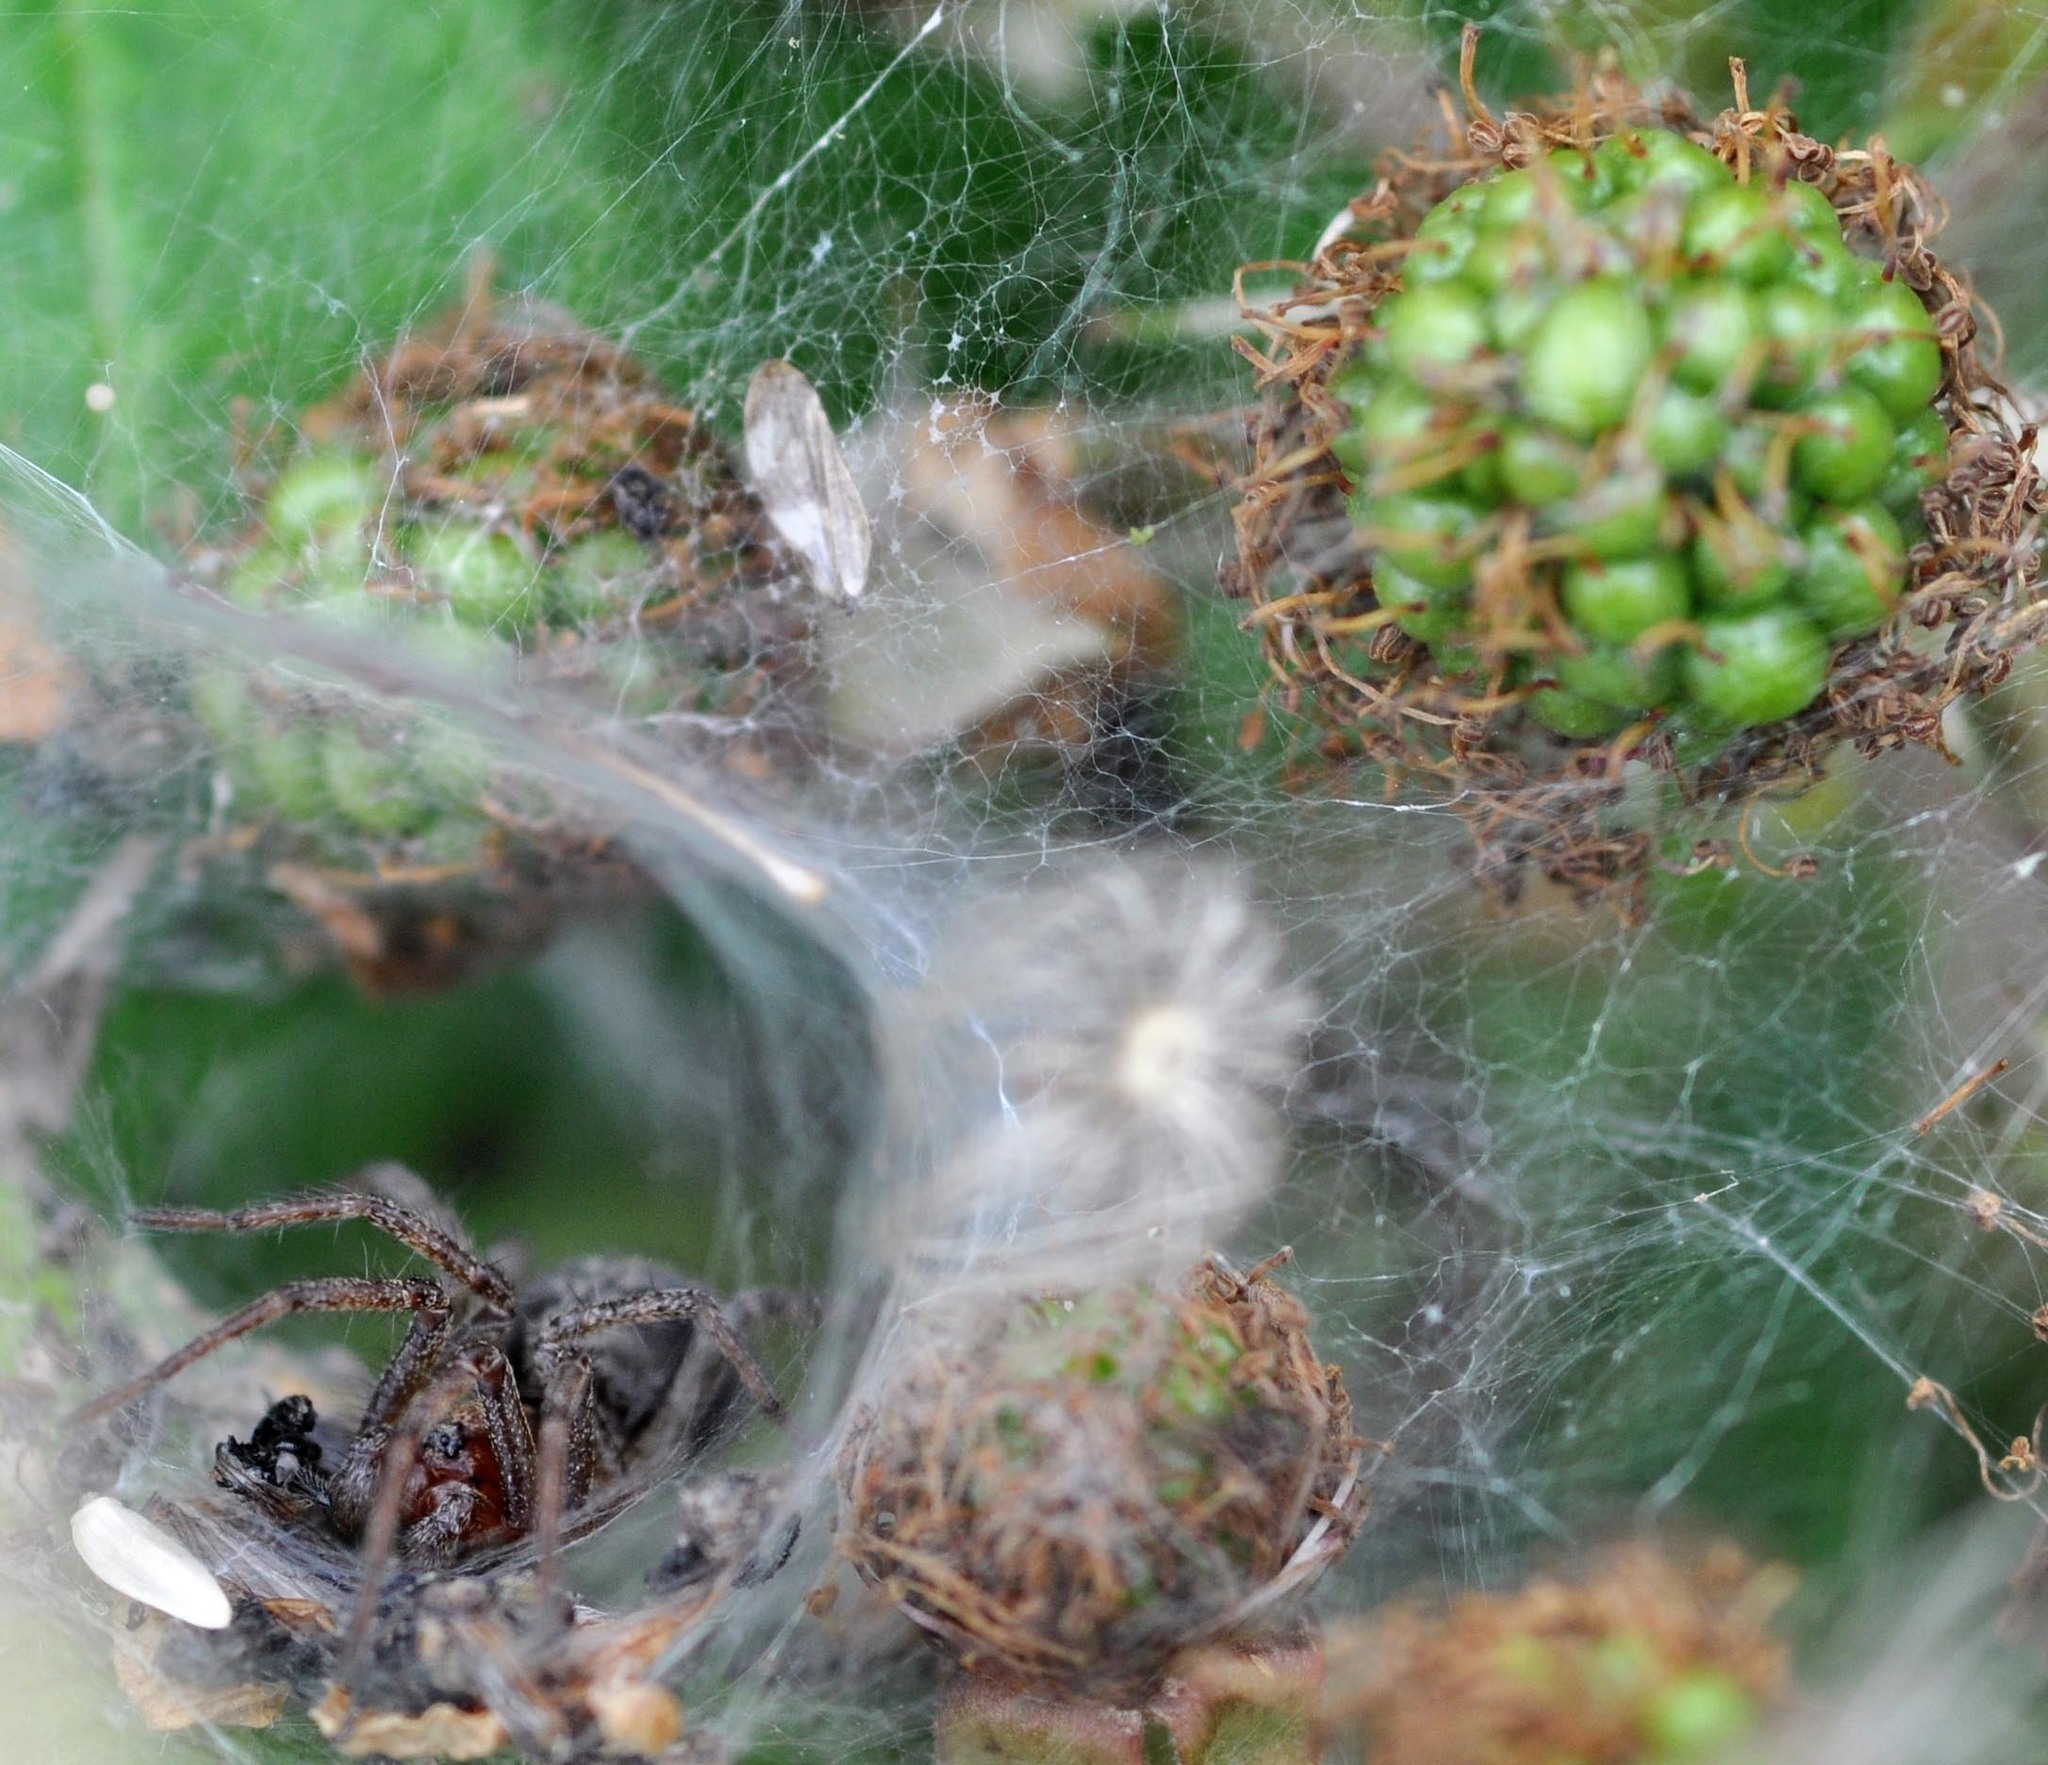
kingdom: Animalia
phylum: Arthropoda
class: Arachnida
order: Araneae
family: Agelenidae
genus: Agelena
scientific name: Agelena labyrinthica
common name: Labyrinth spider
